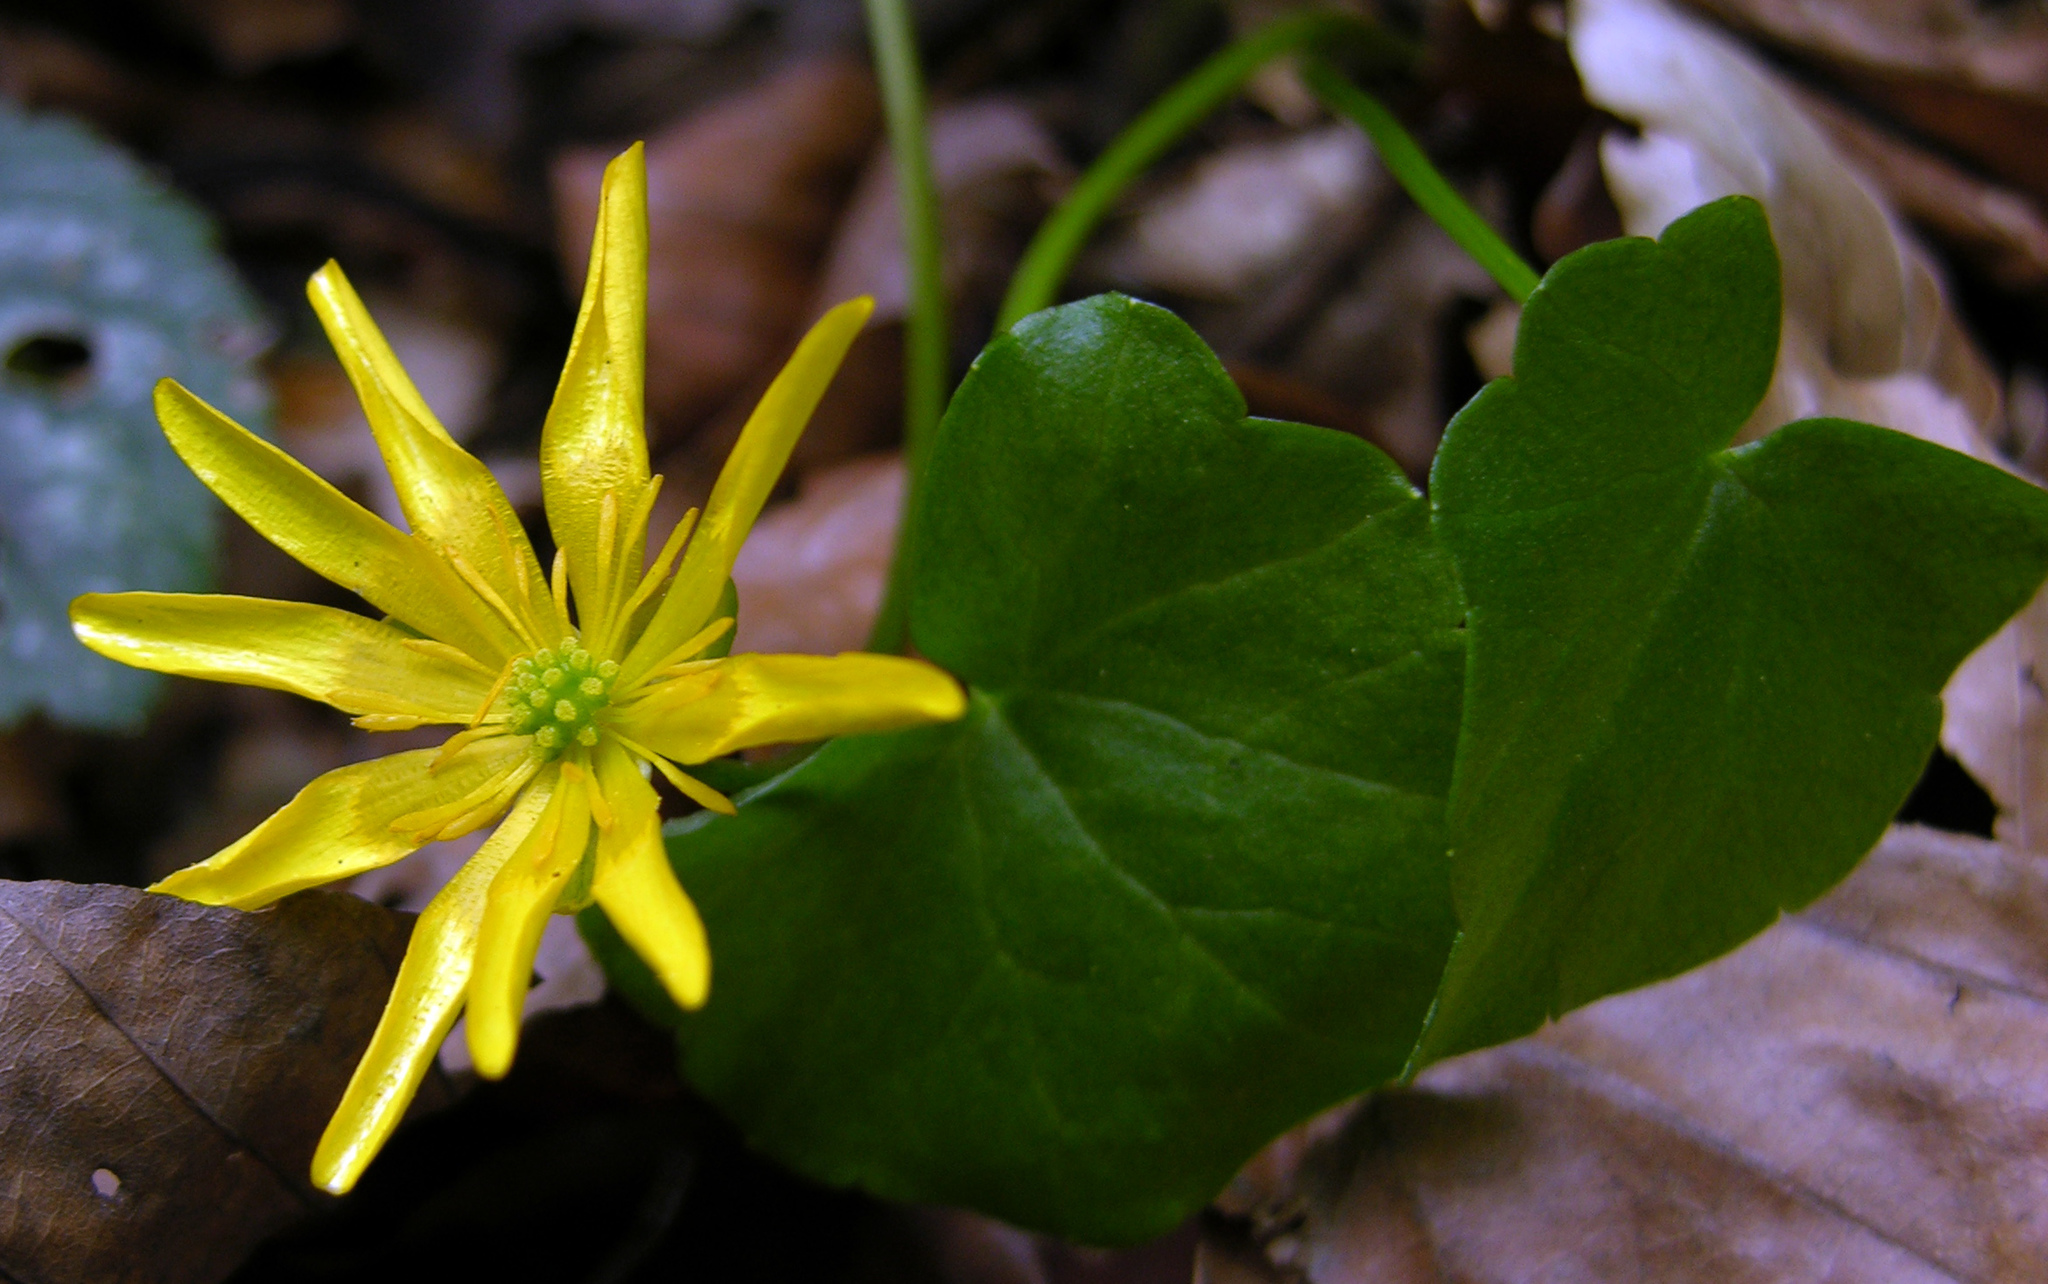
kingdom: Plantae
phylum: Tracheophyta
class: Magnoliopsida
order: Ranunculales
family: Ranunculaceae
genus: Ficaria
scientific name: Ficaria verna
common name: Lesser celandine
